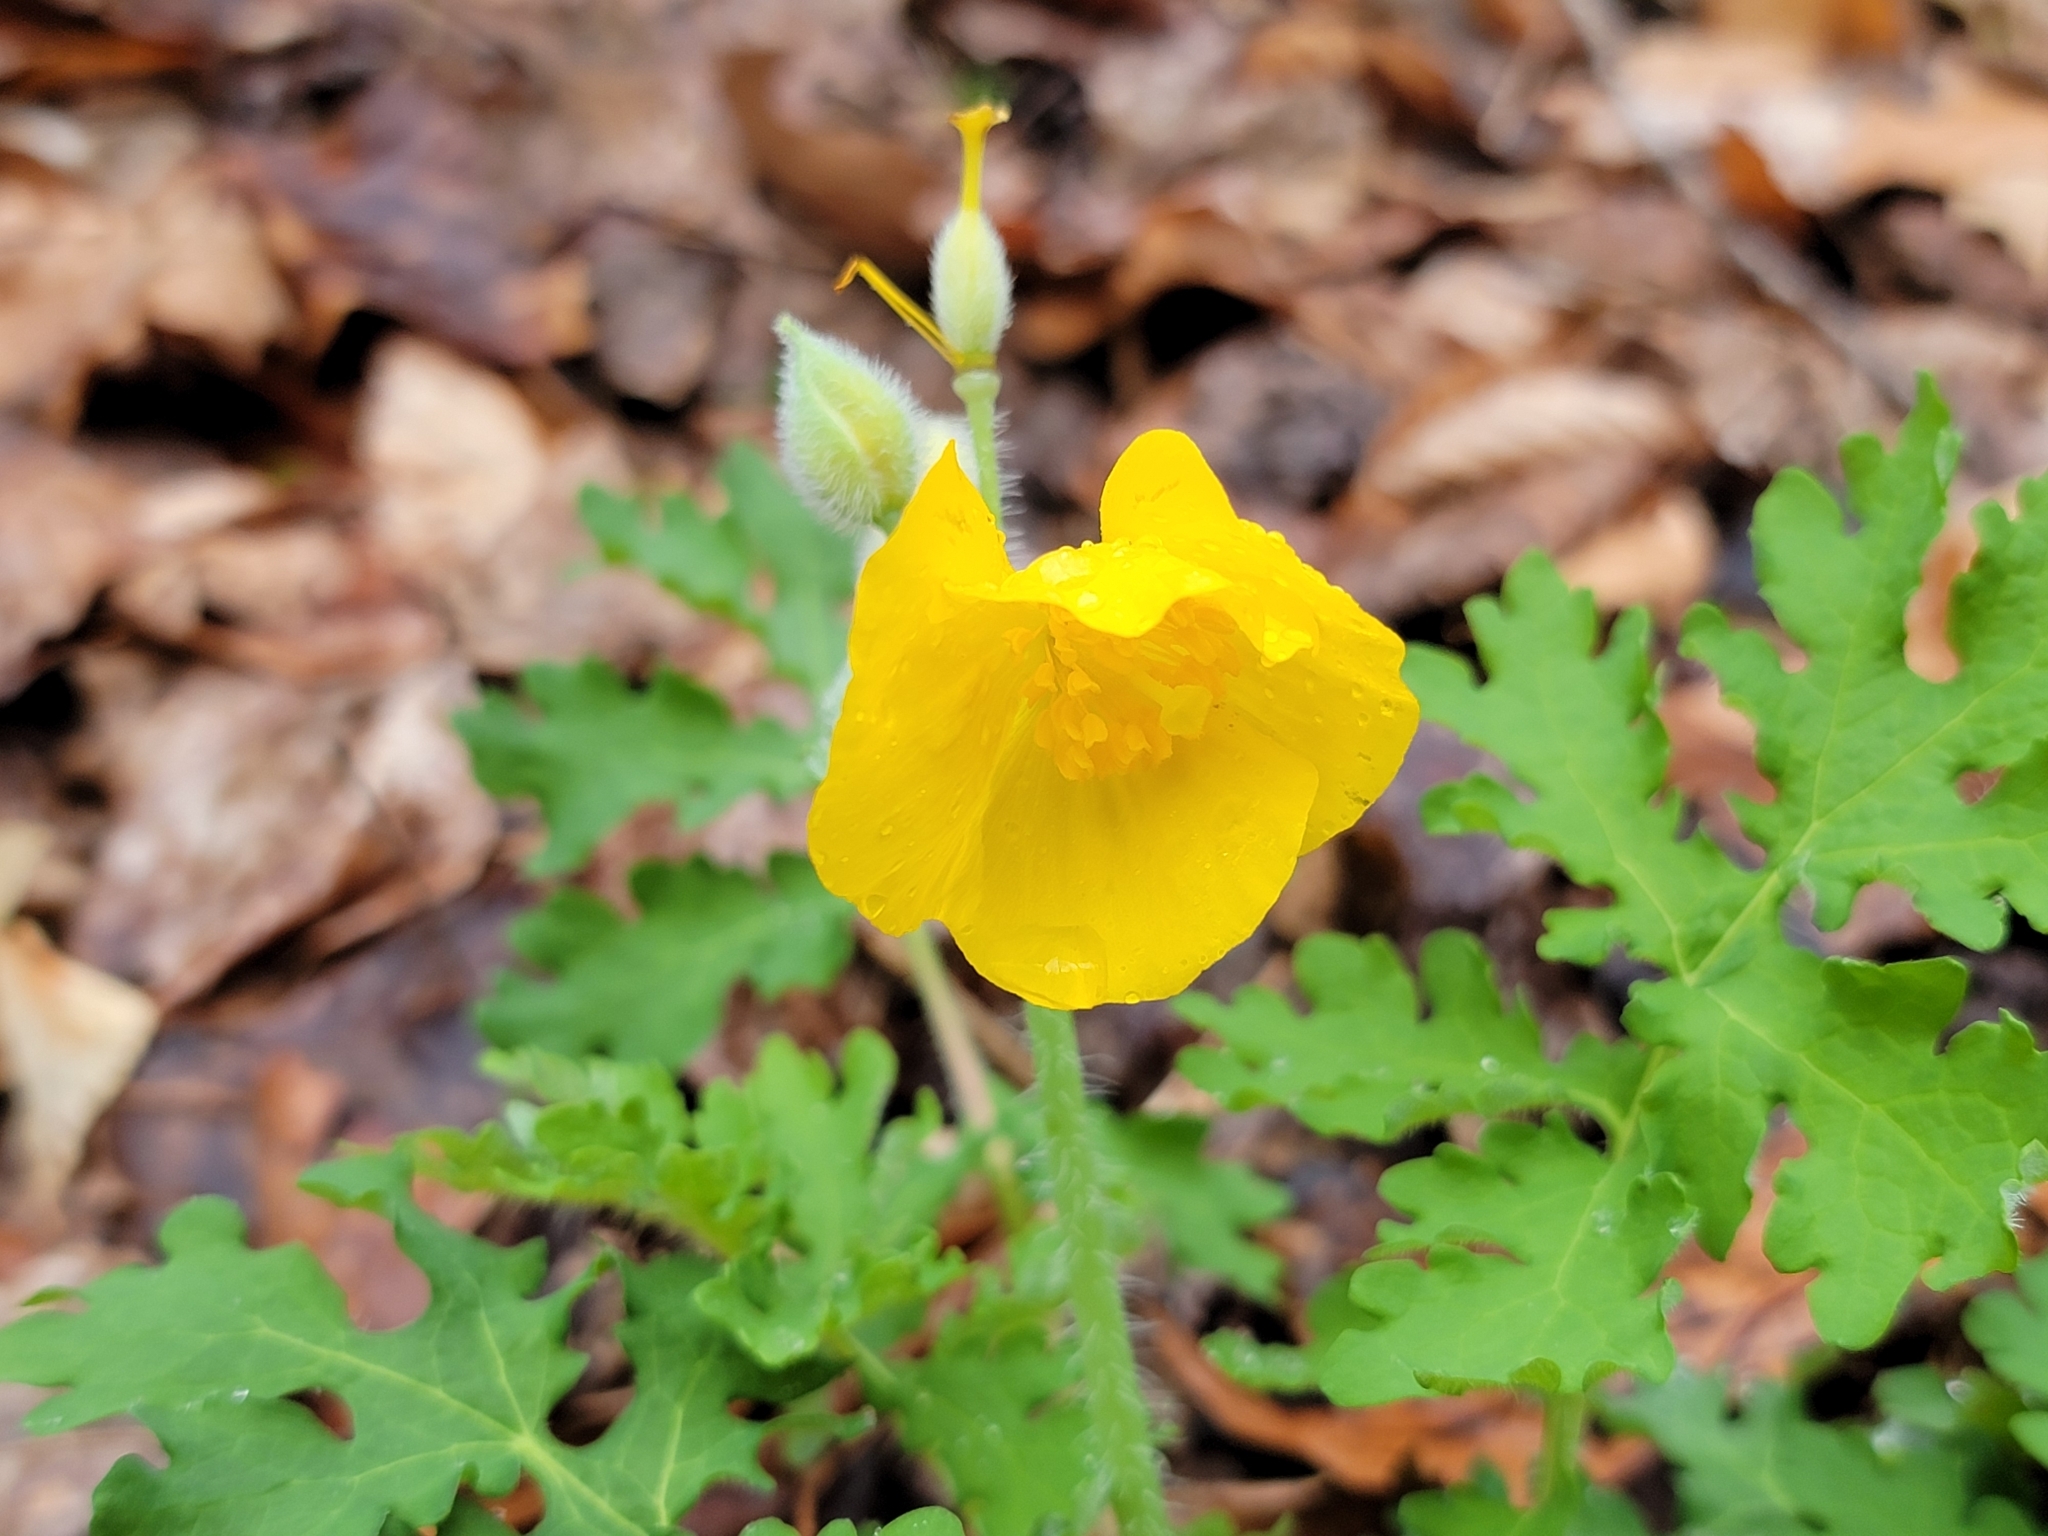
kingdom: Plantae
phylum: Tracheophyta
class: Magnoliopsida
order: Ranunculales
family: Papaveraceae
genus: Stylophorum
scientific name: Stylophorum diphyllum
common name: Celandine poppy
